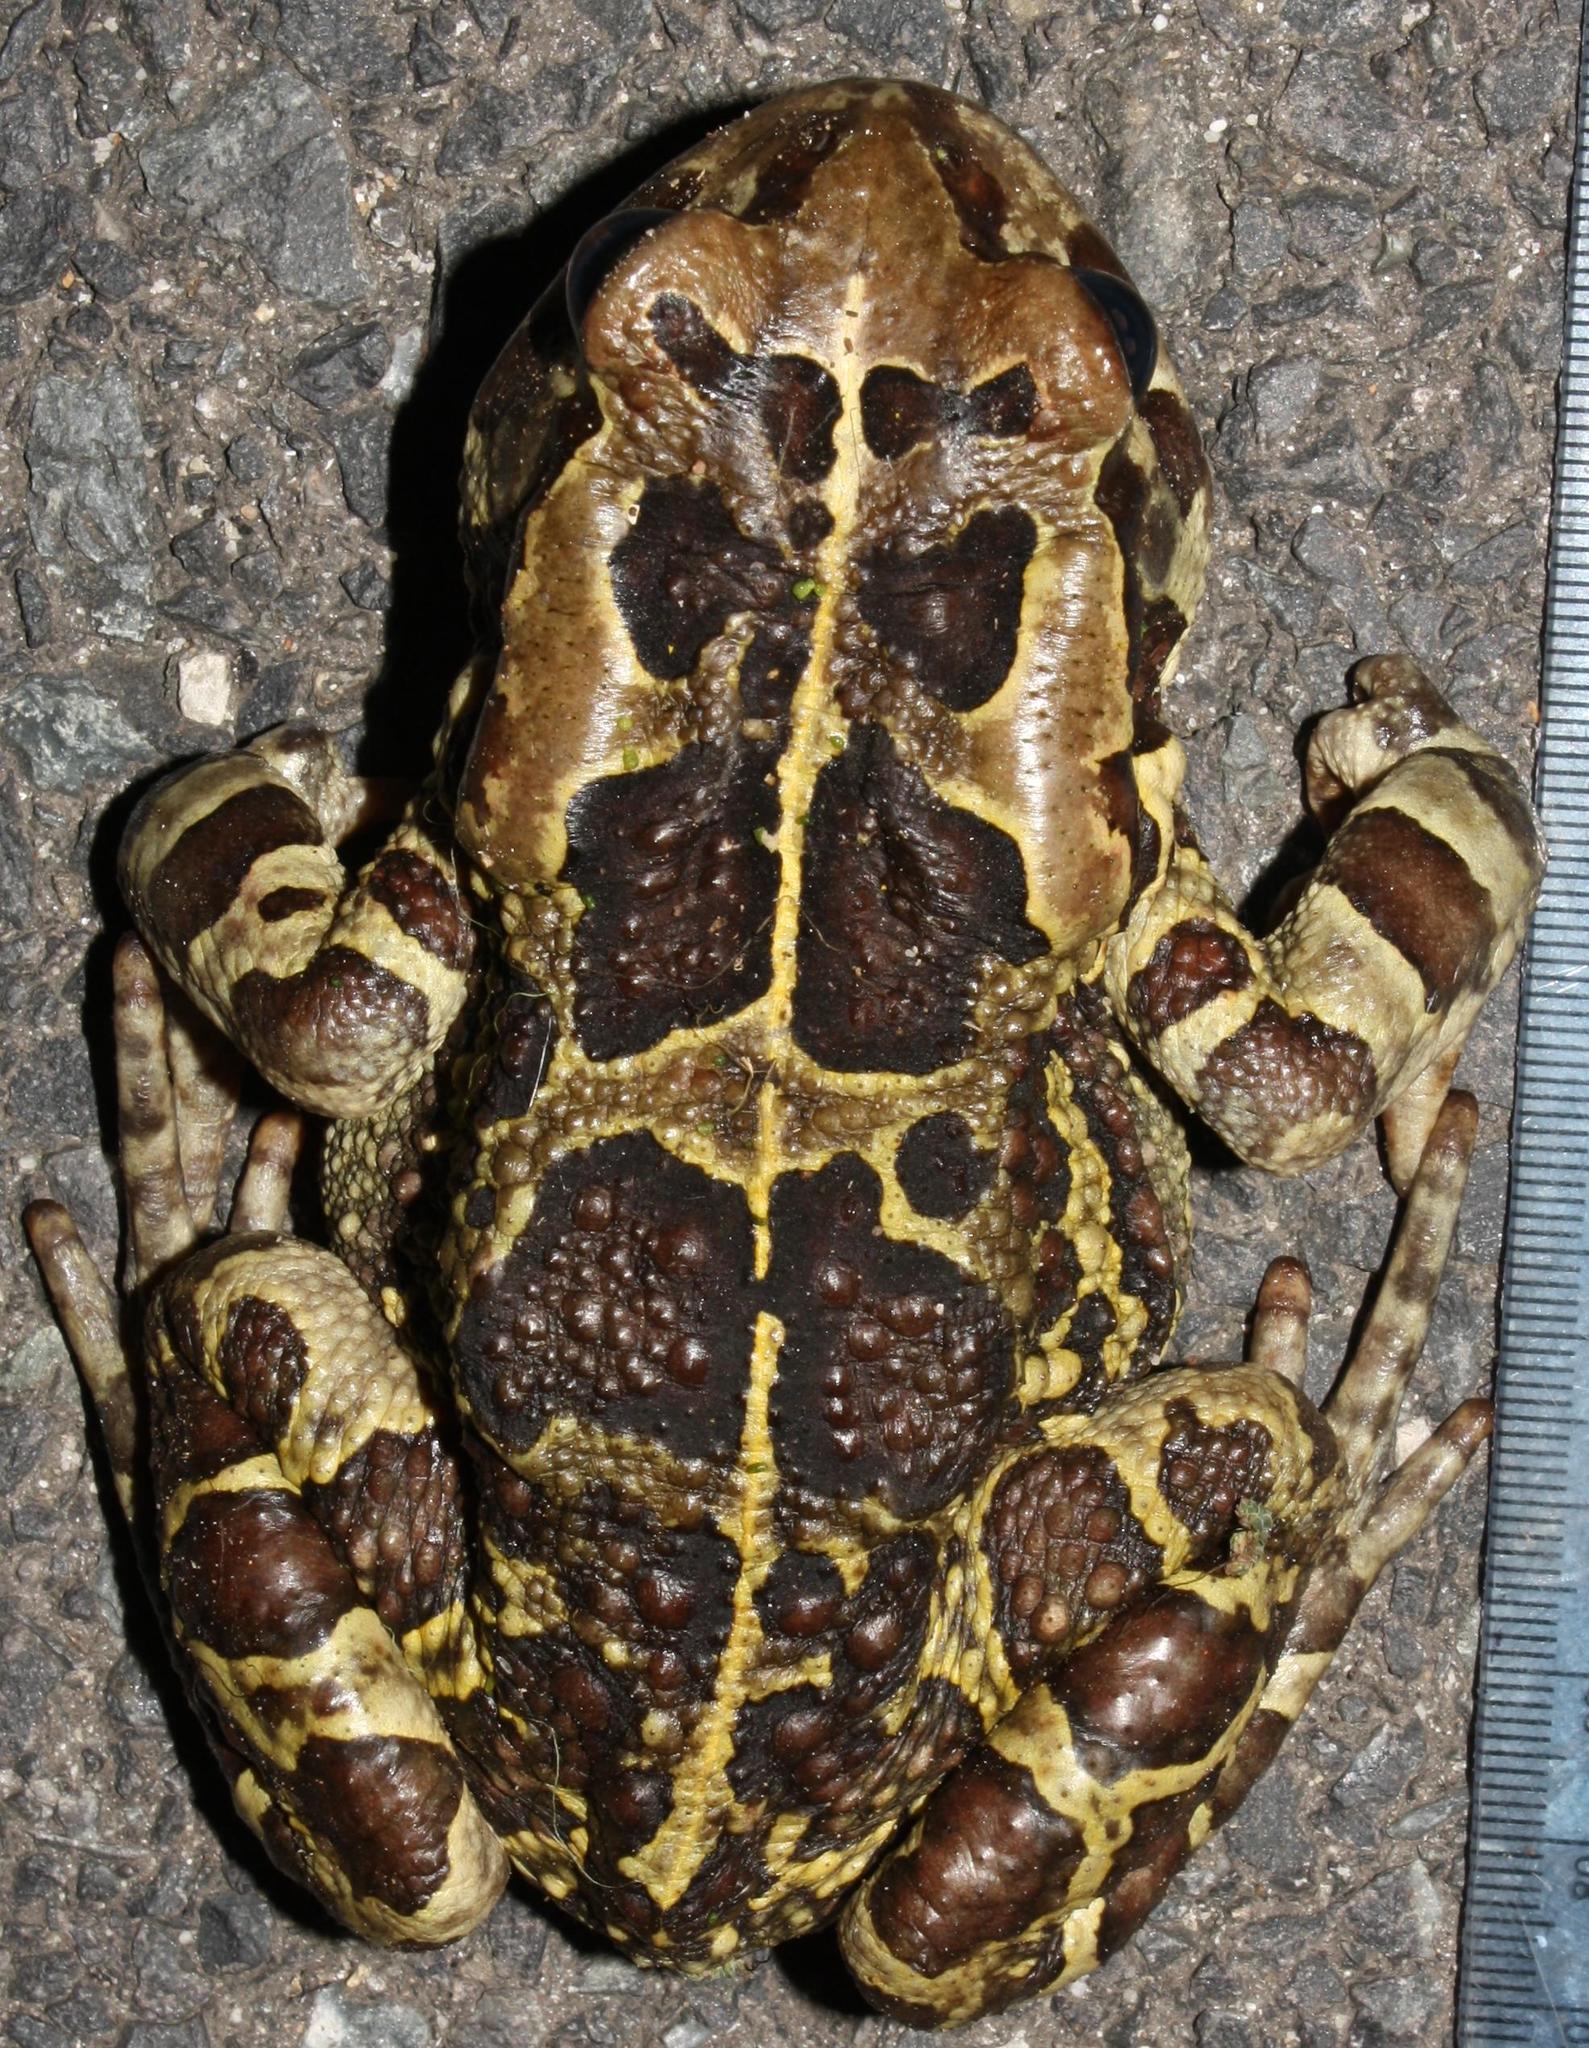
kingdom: Animalia
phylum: Chordata
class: Amphibia
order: Anura
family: Bufonidae
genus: Sclerophrys
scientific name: Sclerophrys pantherina
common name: Panther toad
